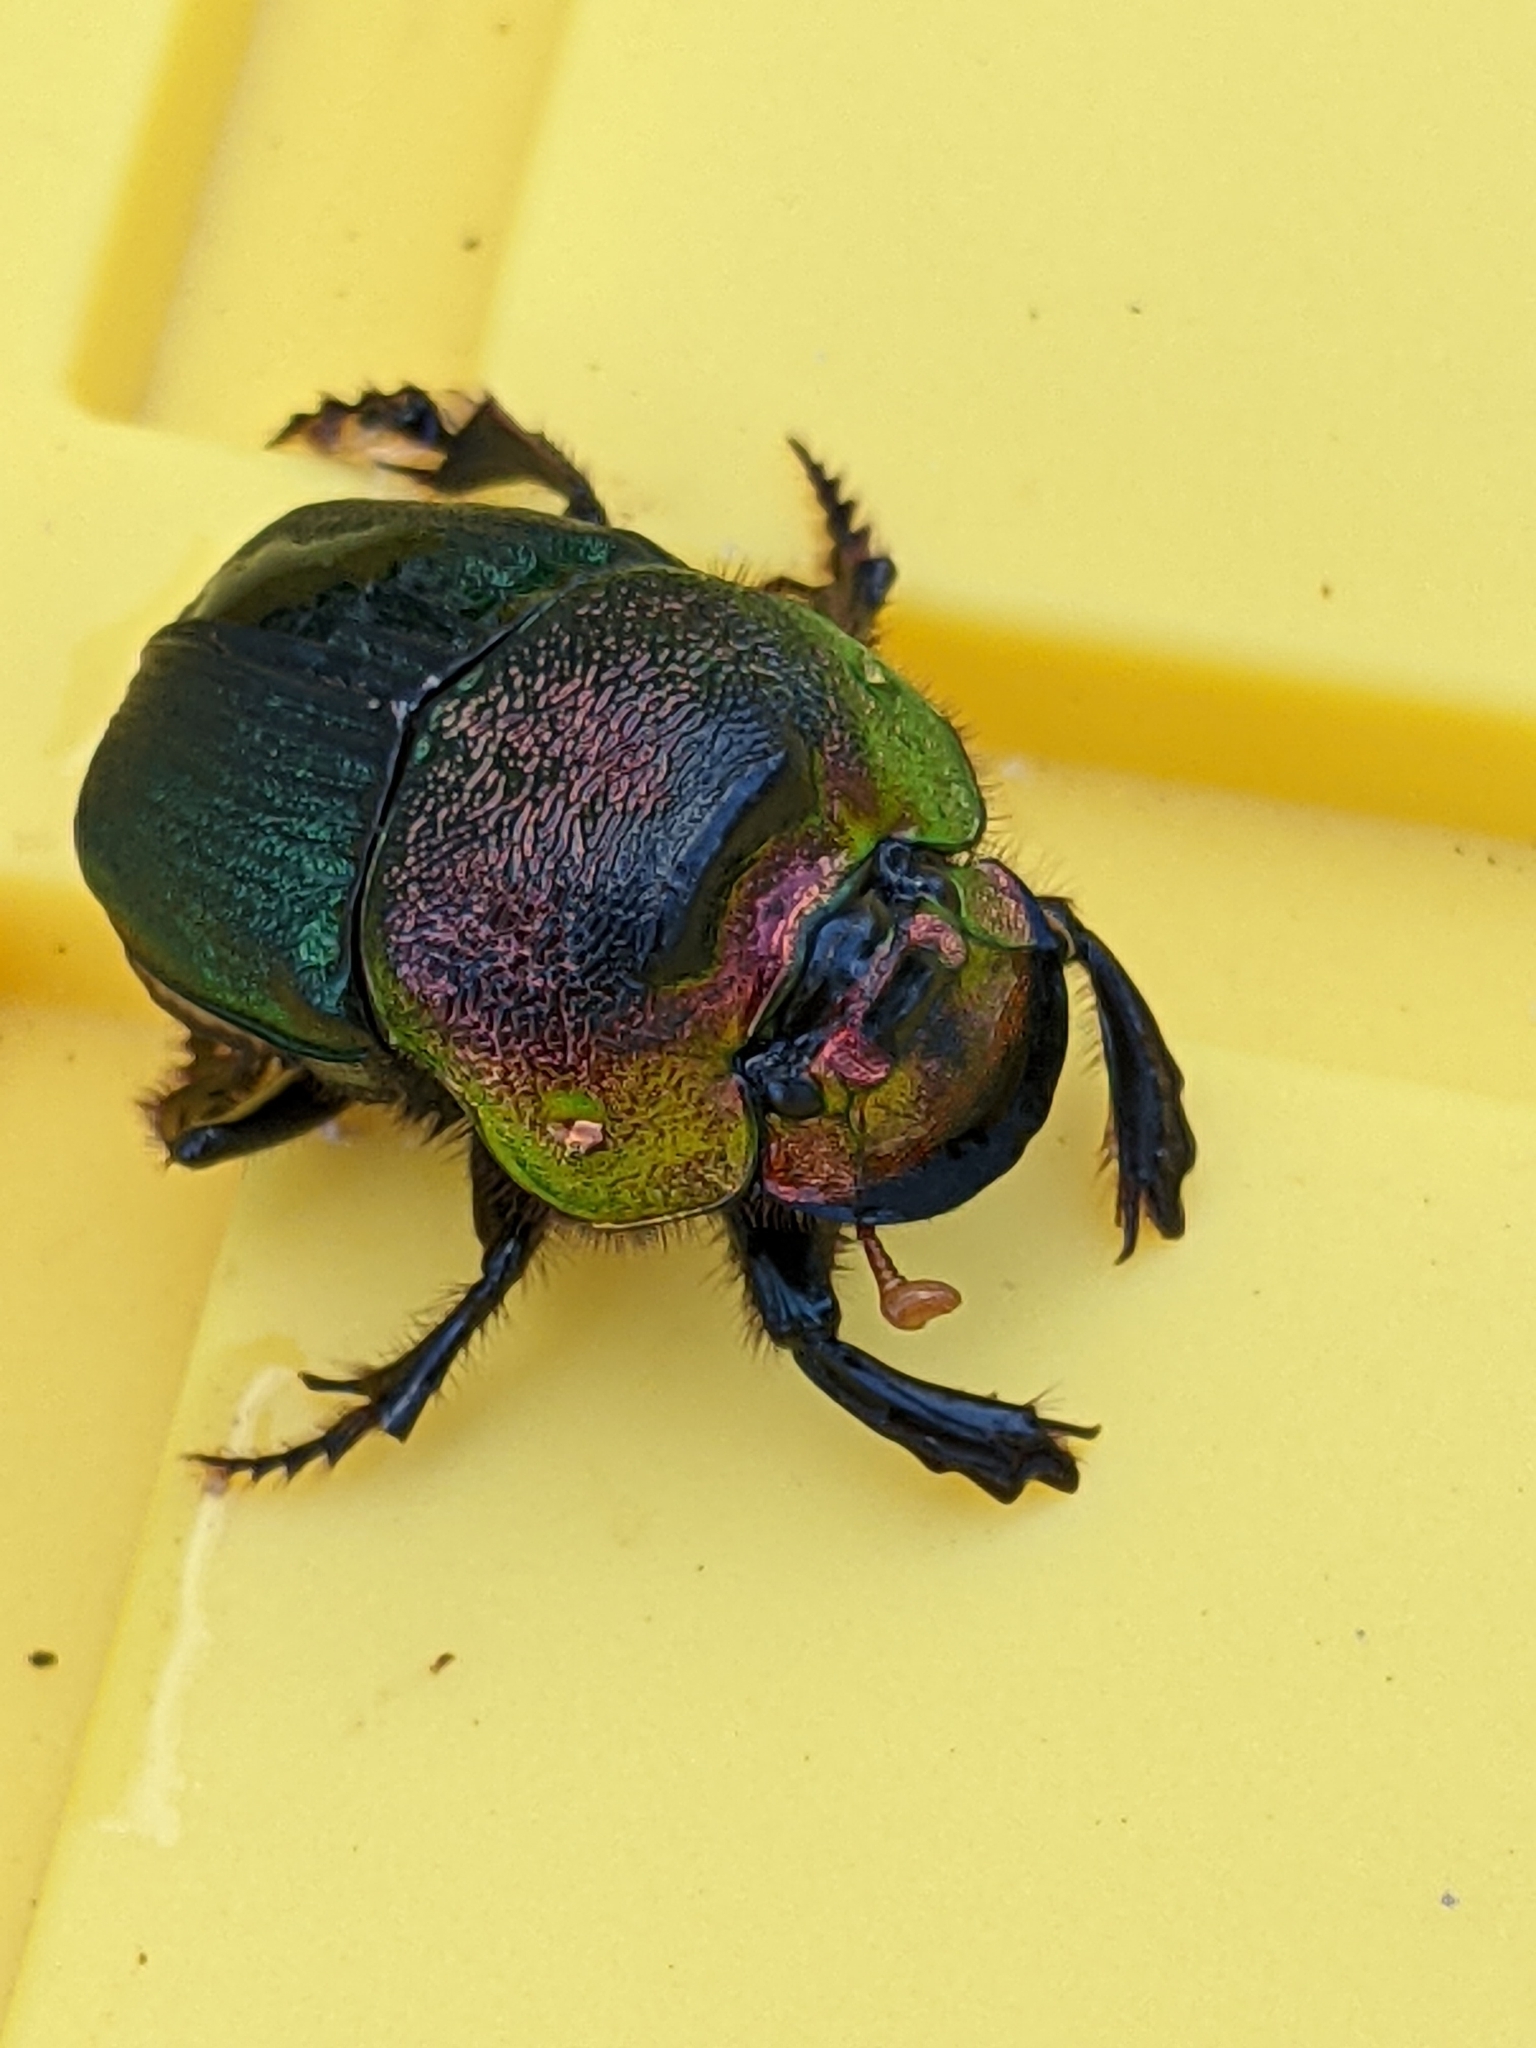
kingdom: Animalia
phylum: Arthropoda
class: Insecta
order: Coleoptera
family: Scarabaeidae
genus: Phanaeus
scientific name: Phanaeus vindex
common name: Rainbow scarab
